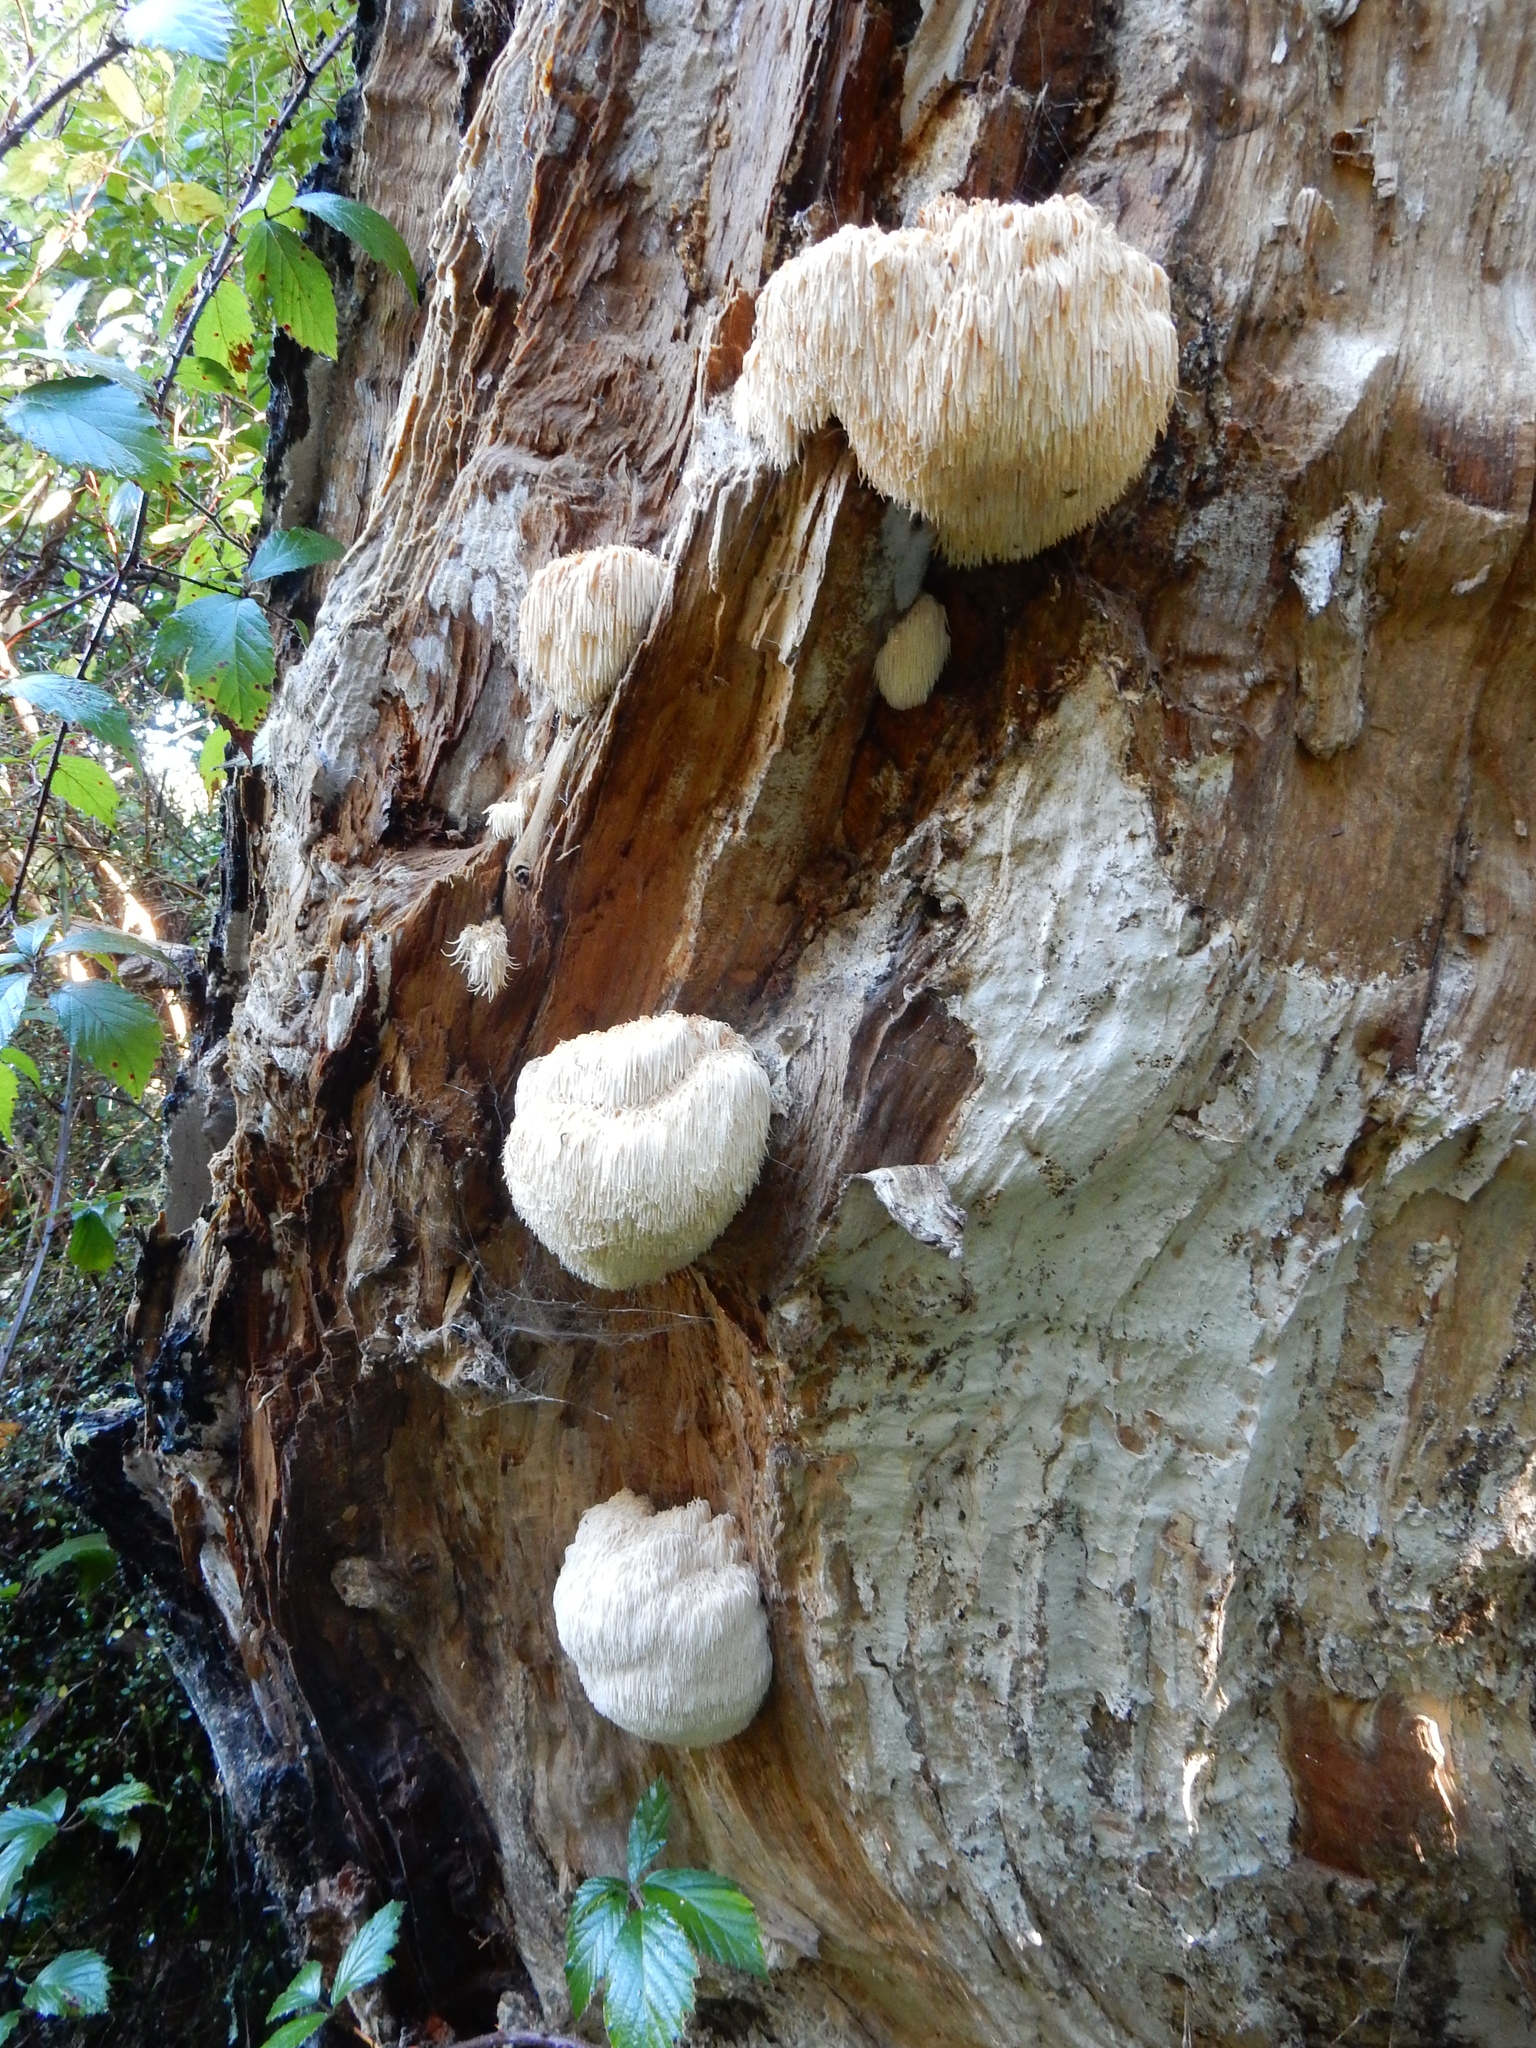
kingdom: Fungi
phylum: Basidiomycota
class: Agaricomycetes
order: Russulales
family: Hericiaceae
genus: Hericium
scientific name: Hericium novae-zealandiae
